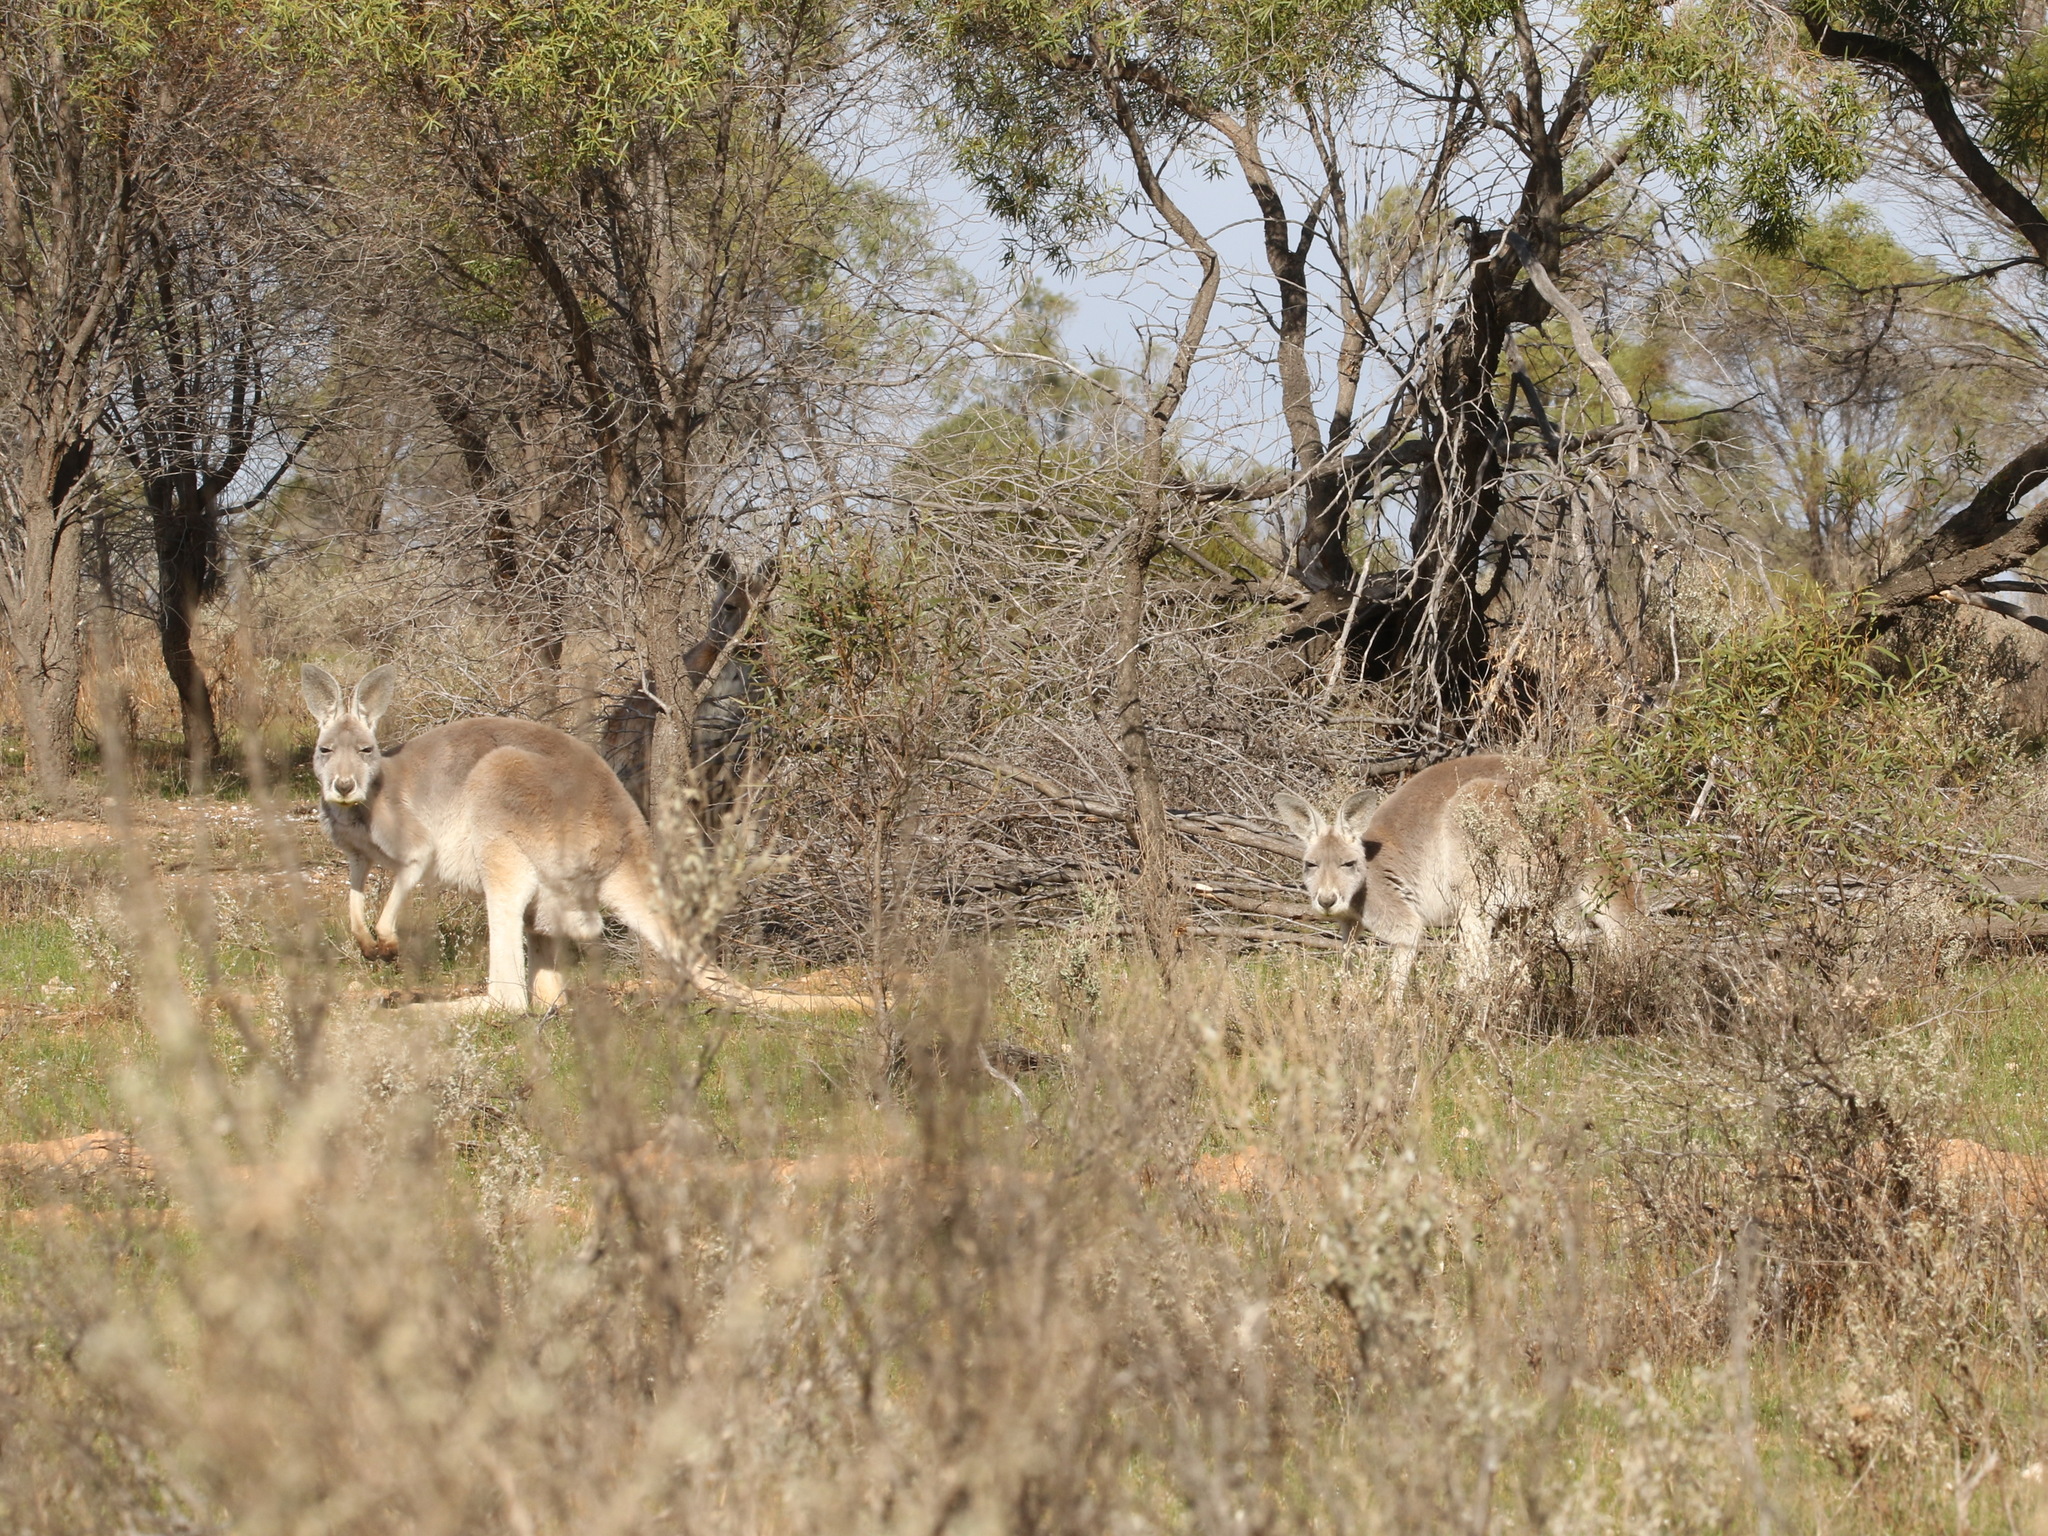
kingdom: Animalia
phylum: Chordata
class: Mammalia
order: Diprotodontia
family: Macropodidae
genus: Macropus
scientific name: Macropus rufus
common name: Red kangaroo
